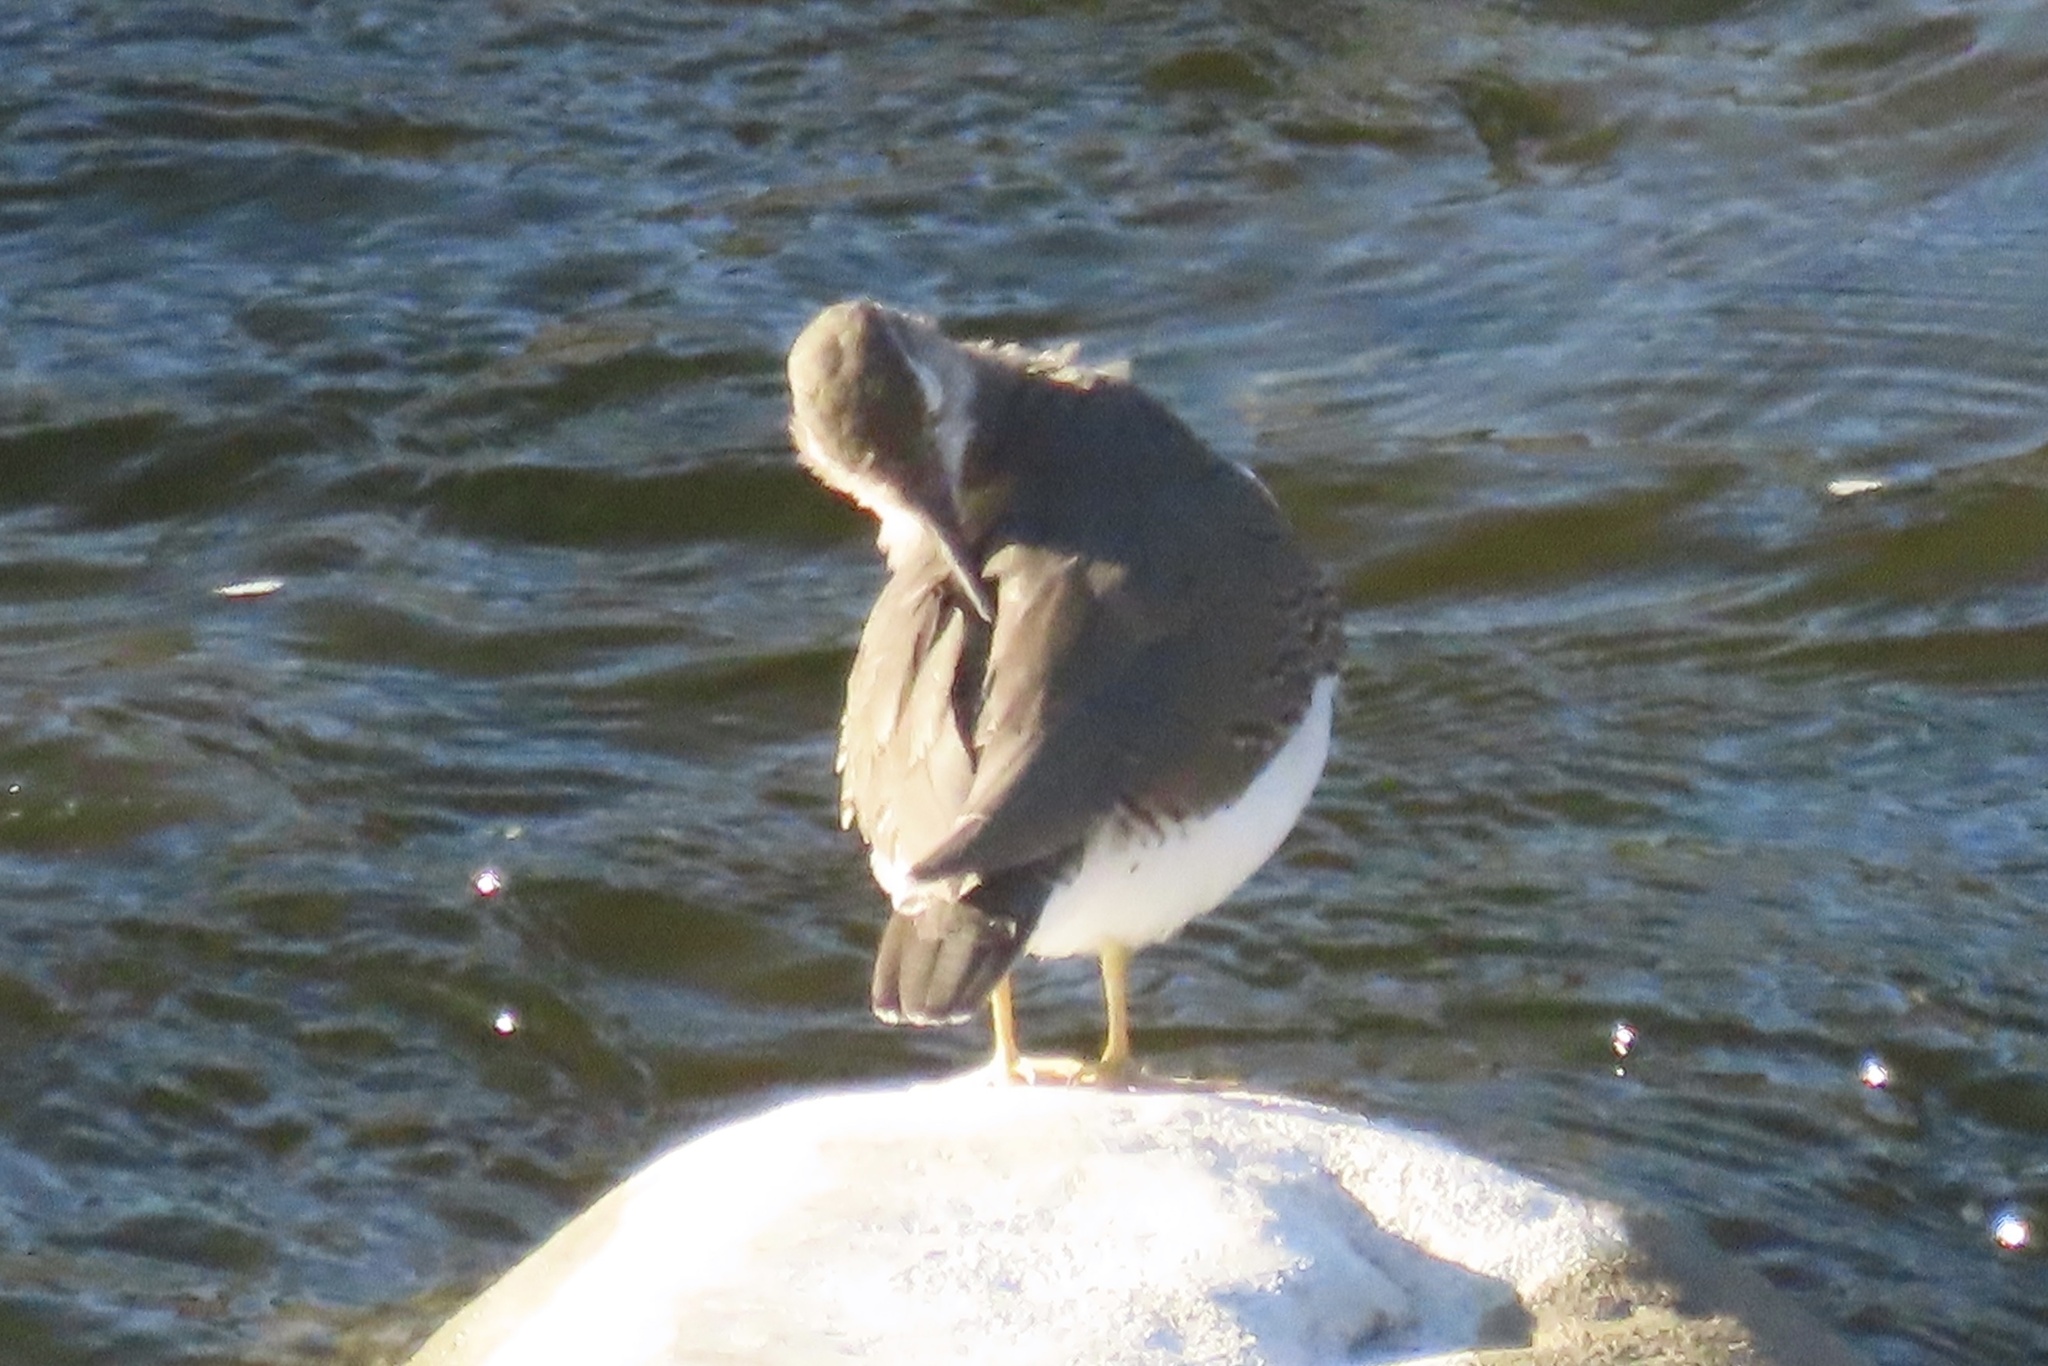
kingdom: Animalia
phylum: Chordata
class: Aves
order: Charadriiformes
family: Scolopacidae
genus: Actitis
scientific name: Actitis macularius
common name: Spotted sandpiper
